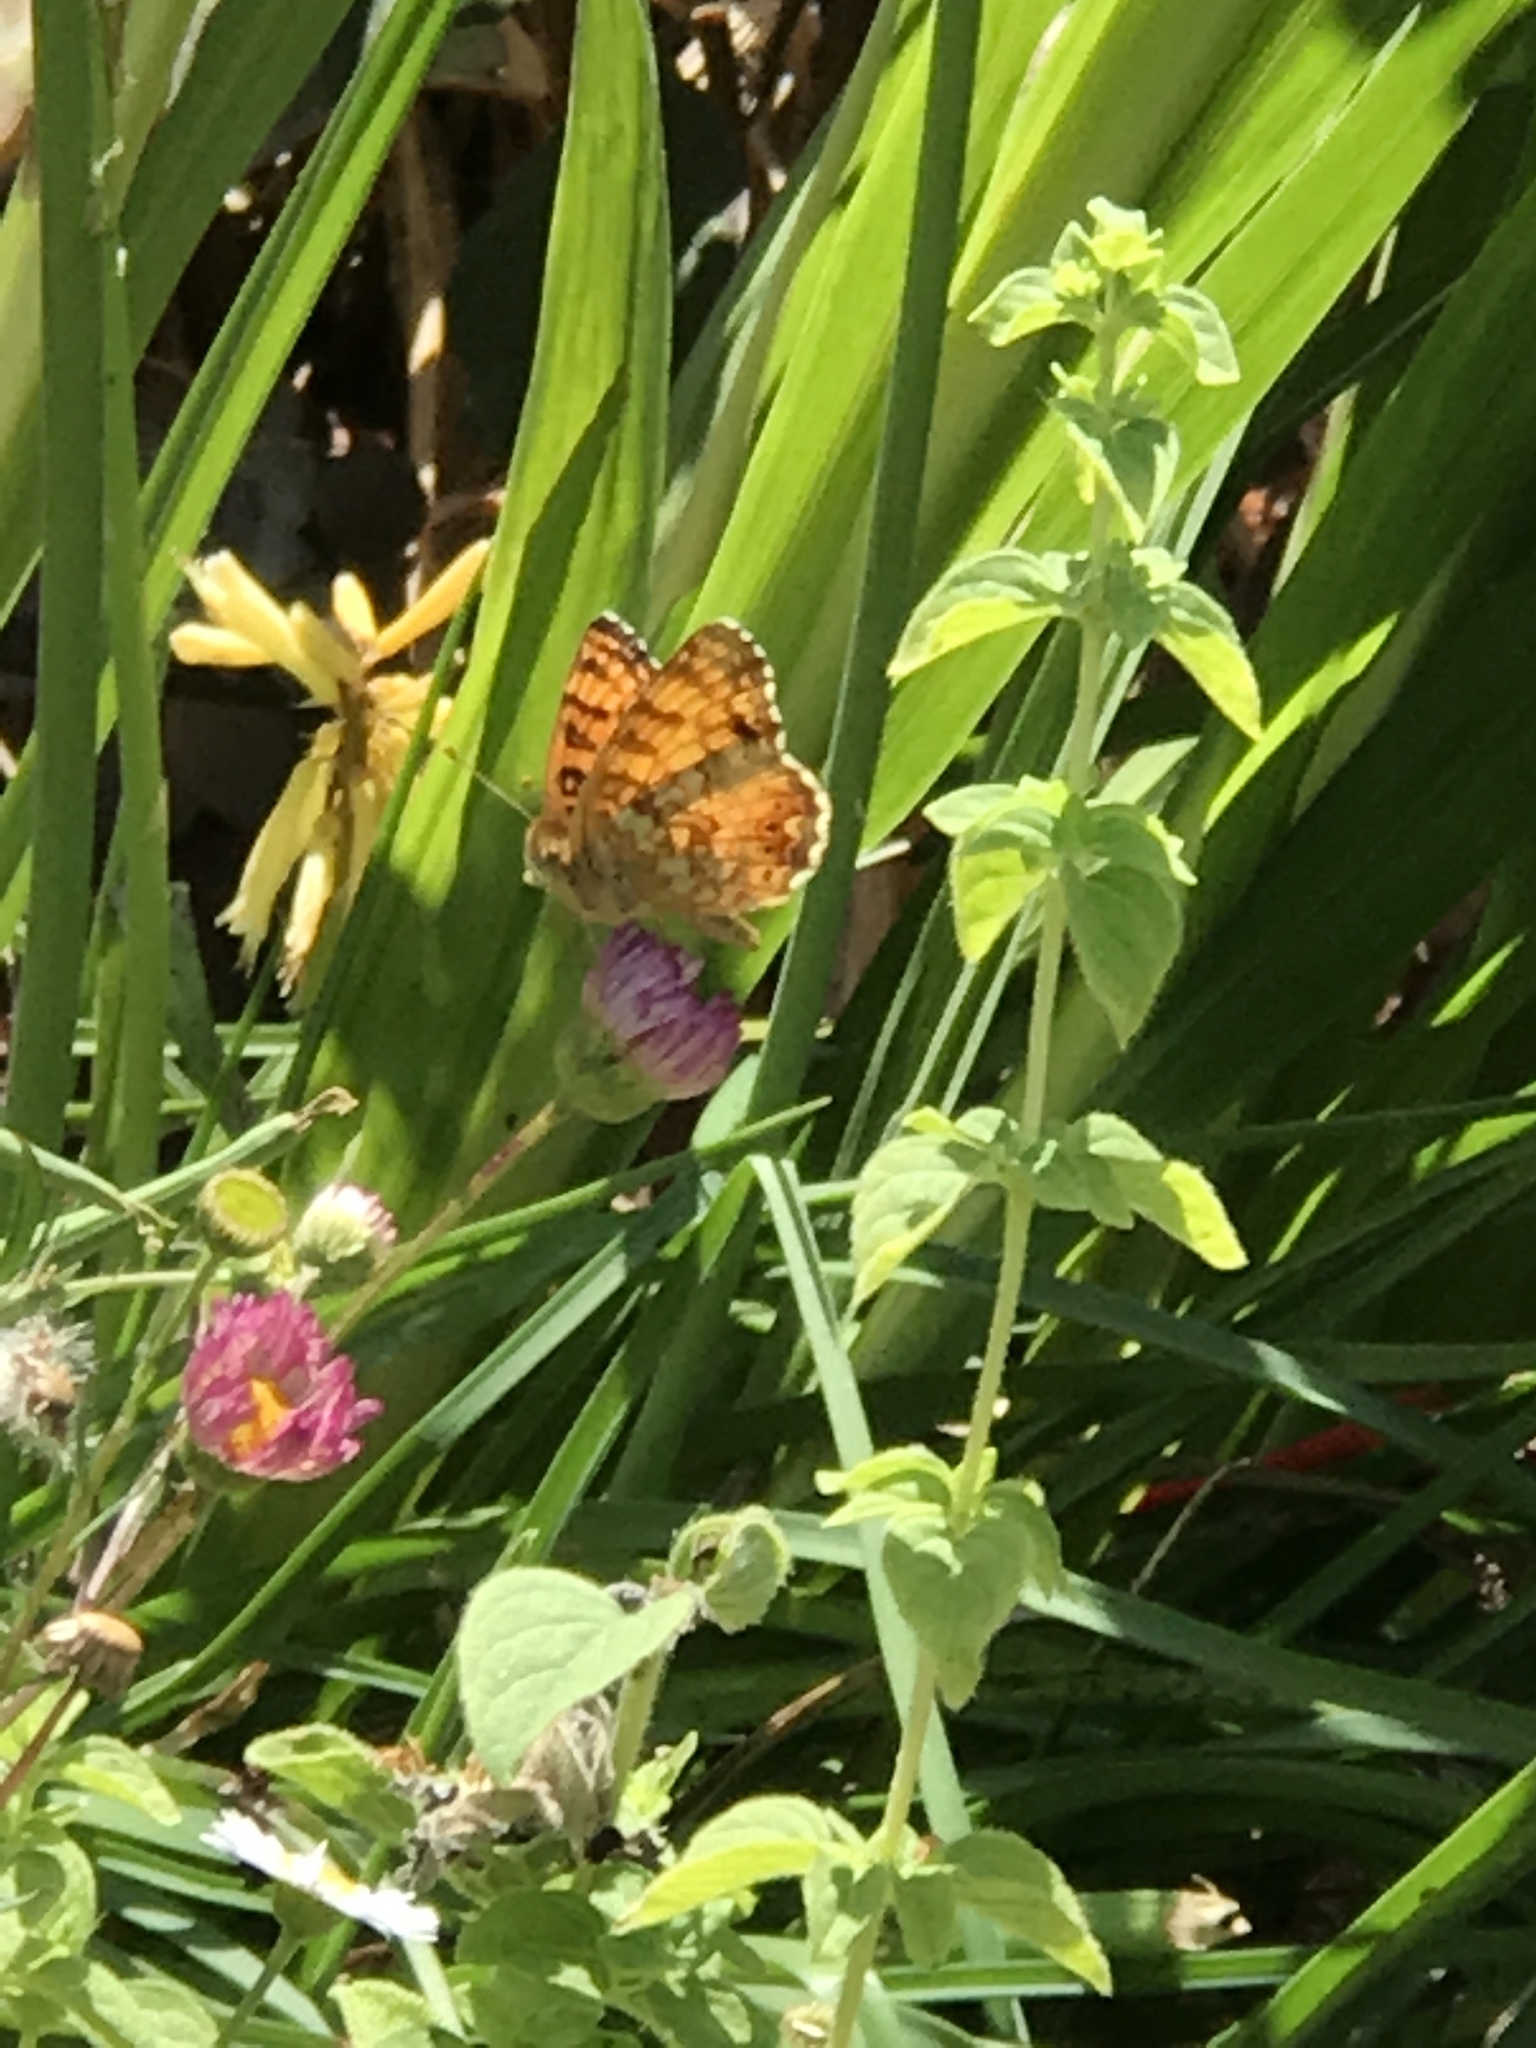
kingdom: Animalia
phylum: Arthropoda
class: Insecta
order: Lepidoptera
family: Nymphalidae
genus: Eresia
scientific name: Eresia aveyrona
